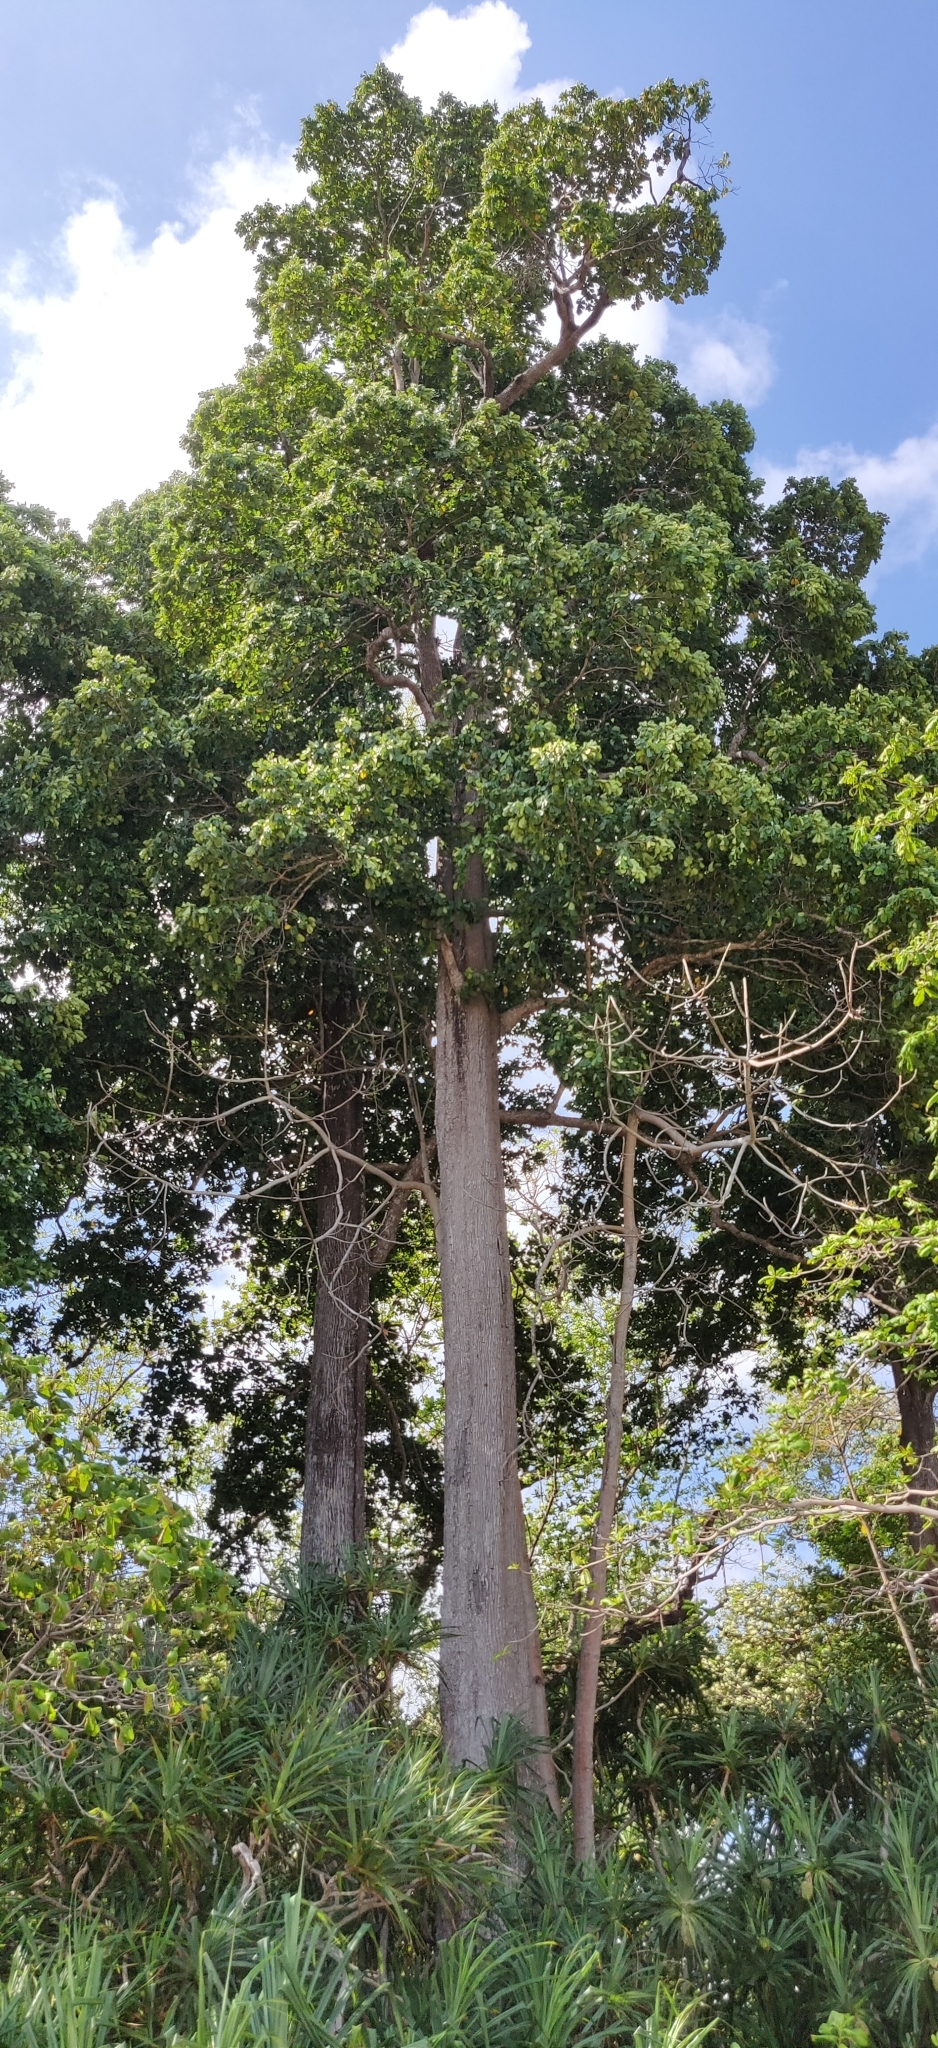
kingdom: Plantae
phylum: Tracheophyta
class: Magnoliopsida
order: Ericales
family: Sapotaceae
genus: Manilkara
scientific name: Manilkara littoralis
